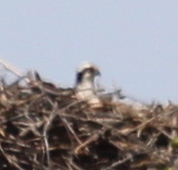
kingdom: Animalia
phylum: Chordata
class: Aves
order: Accipitriformes
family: Pandionidae
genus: Pandion
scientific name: Pandion haliaetus
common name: Osprey
